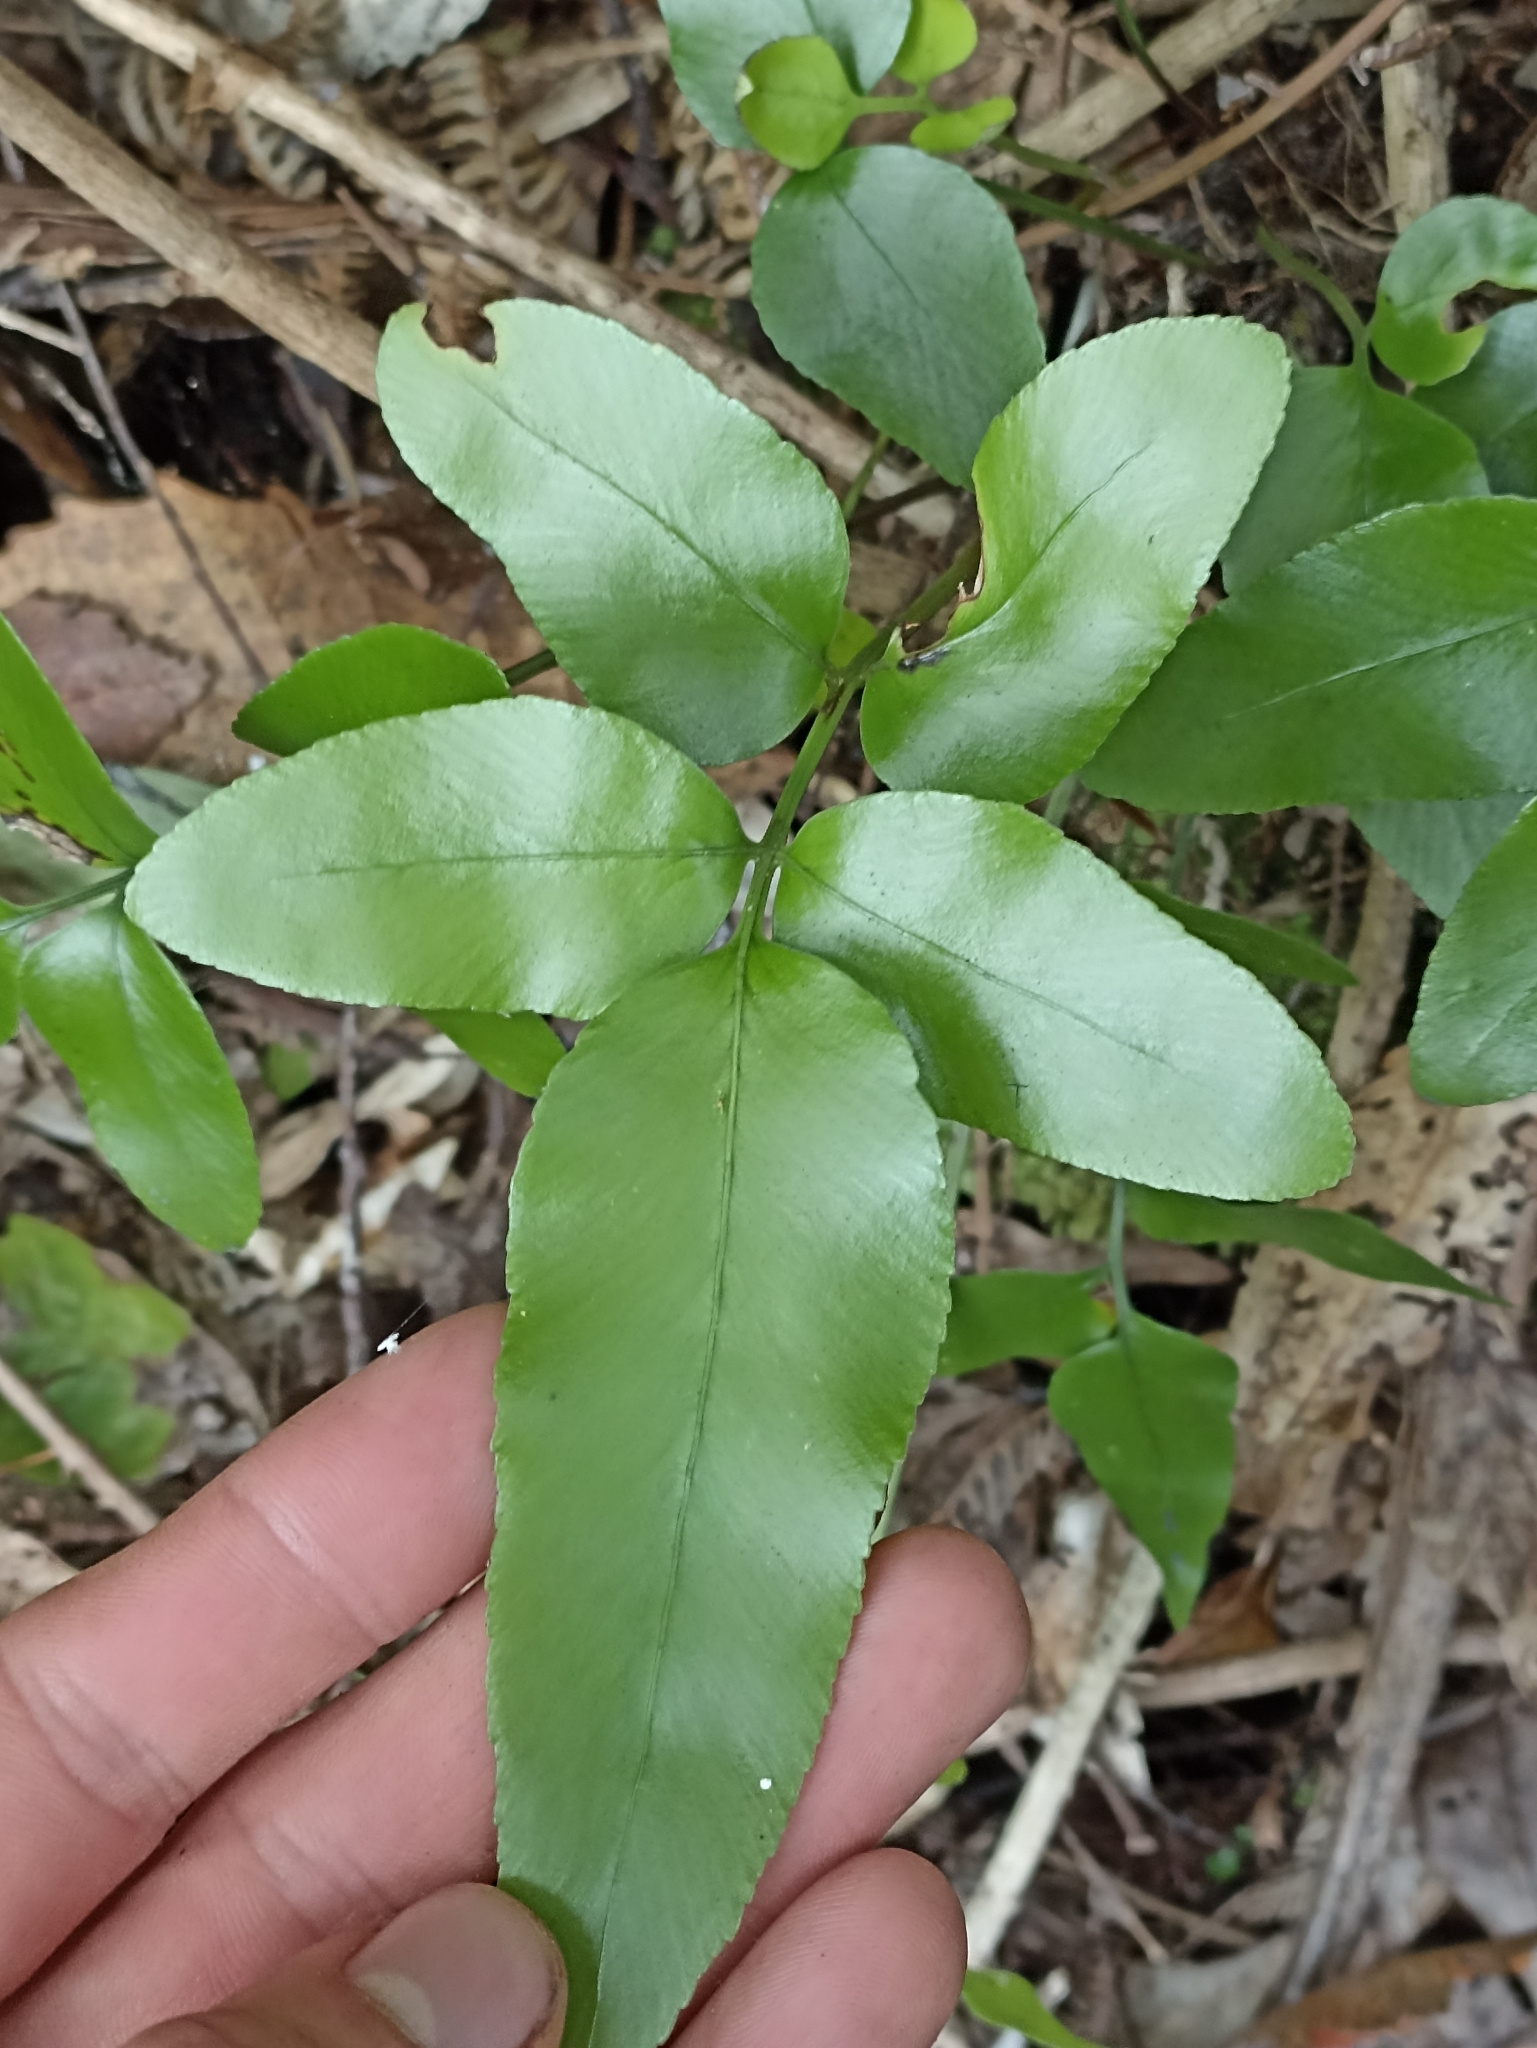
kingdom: Plantae
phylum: Tracheophyta
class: Polypodiopsida
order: Polypodiales
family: Aspleniaceae
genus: Asplenium
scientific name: Asplenium oblongifolium
